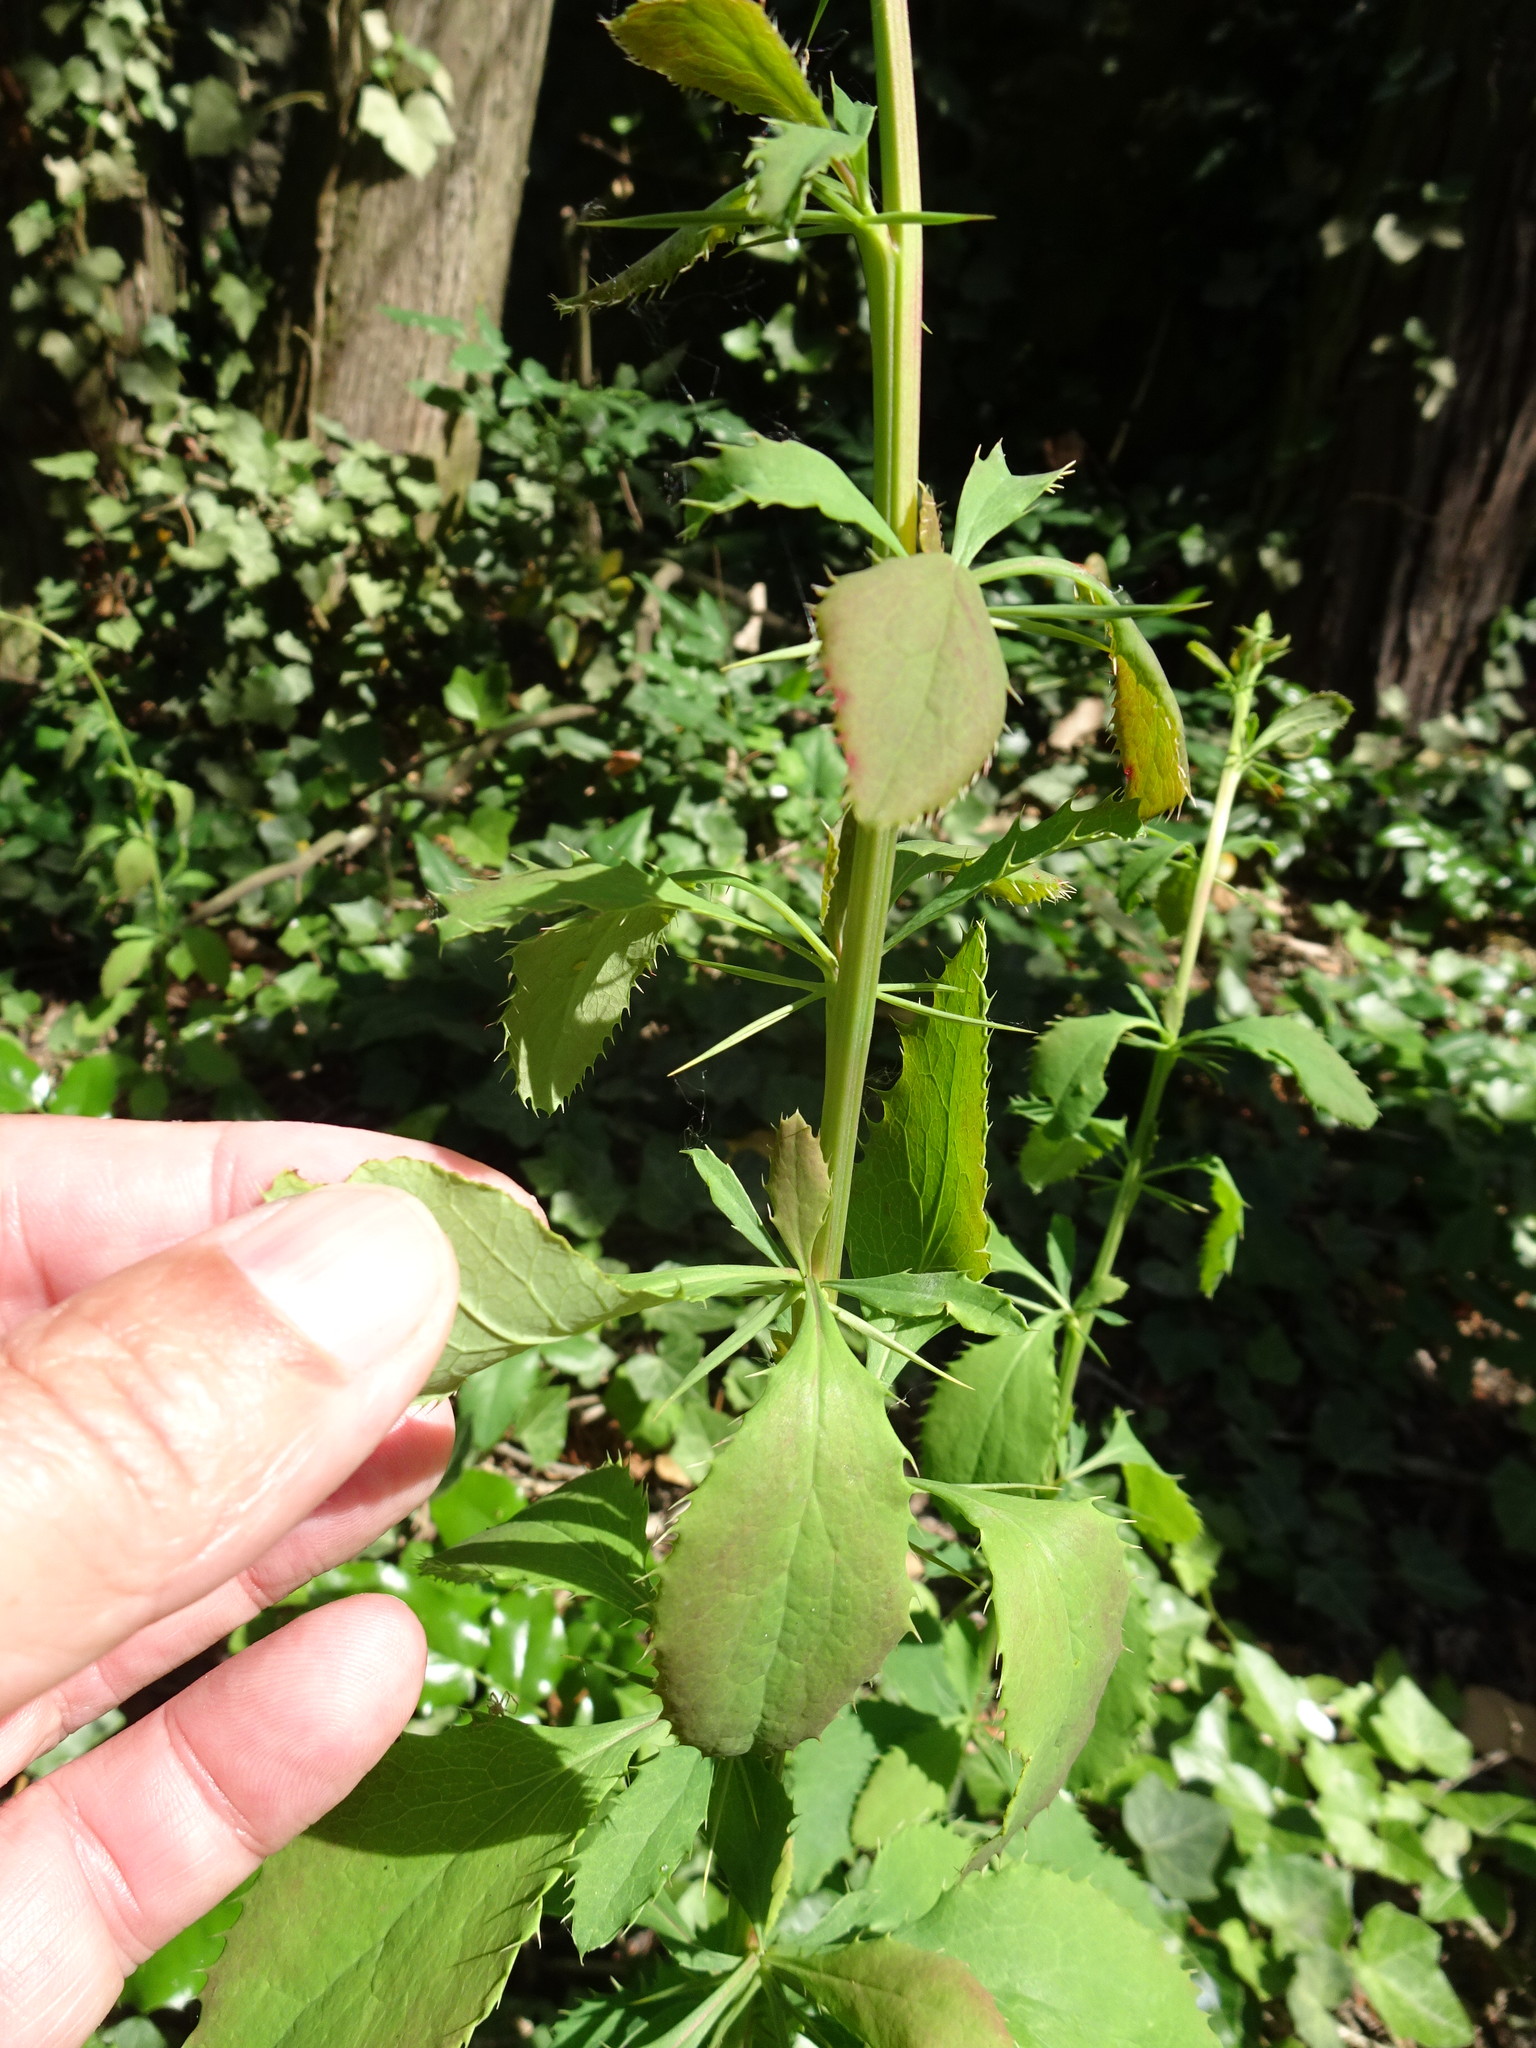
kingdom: Plantae
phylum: Tracheophyta
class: Magnoliopsida
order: Ranunculales
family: Berberidaceae
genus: Berberis
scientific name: Berberis vulgaris
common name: Barberry
